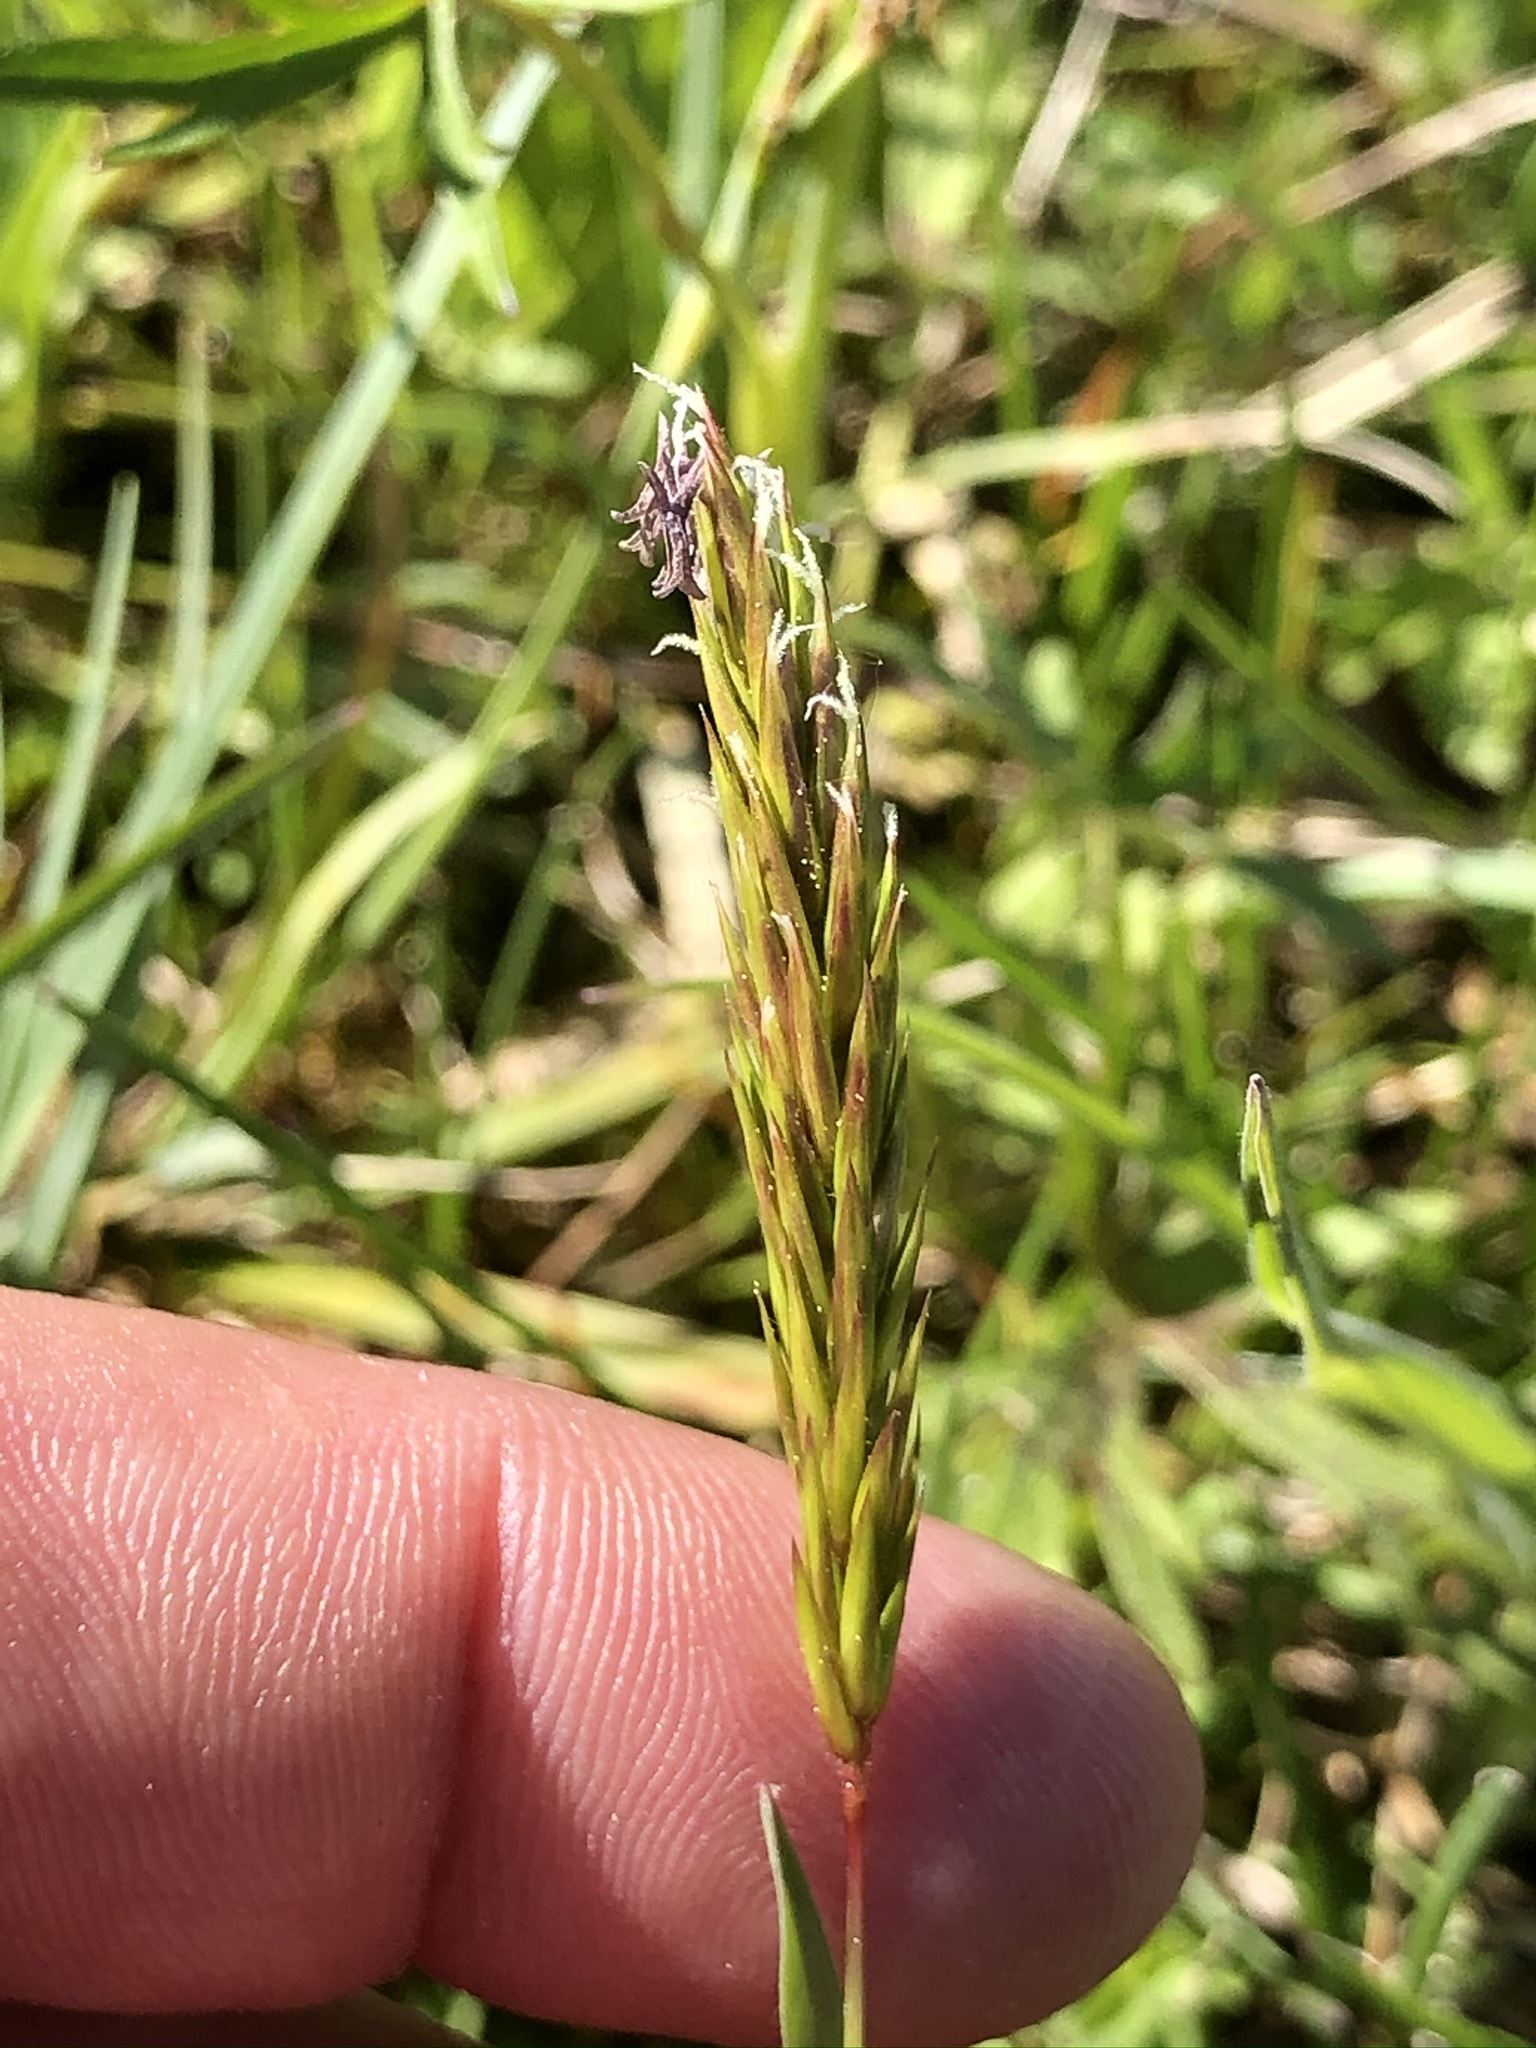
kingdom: Plantae
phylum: Tracheophyta
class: Liliopsida
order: Poales
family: Poaceae
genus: Anthoxanthum
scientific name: Anthoxanthum odoratum
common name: Sweet vernalgrass
